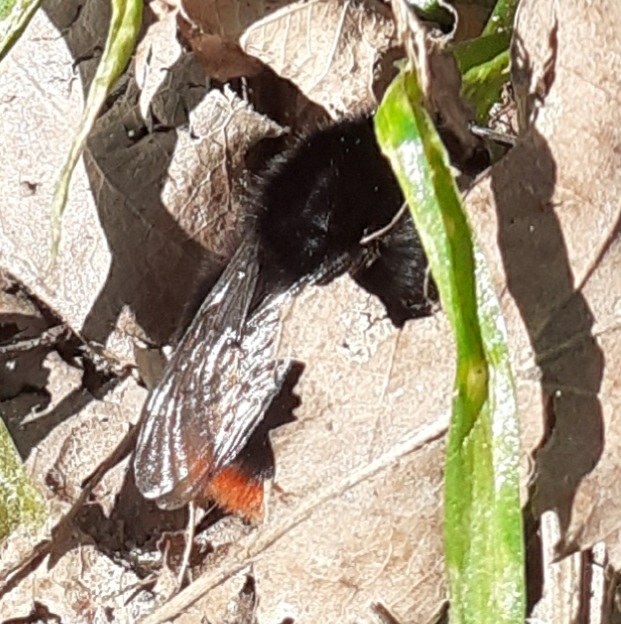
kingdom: Animalia
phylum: Arthropoda
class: Insecta
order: Hymenoptera
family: Apidae
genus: Bombus
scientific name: Bombus lapidarius
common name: Large red-tailed humble-bee
